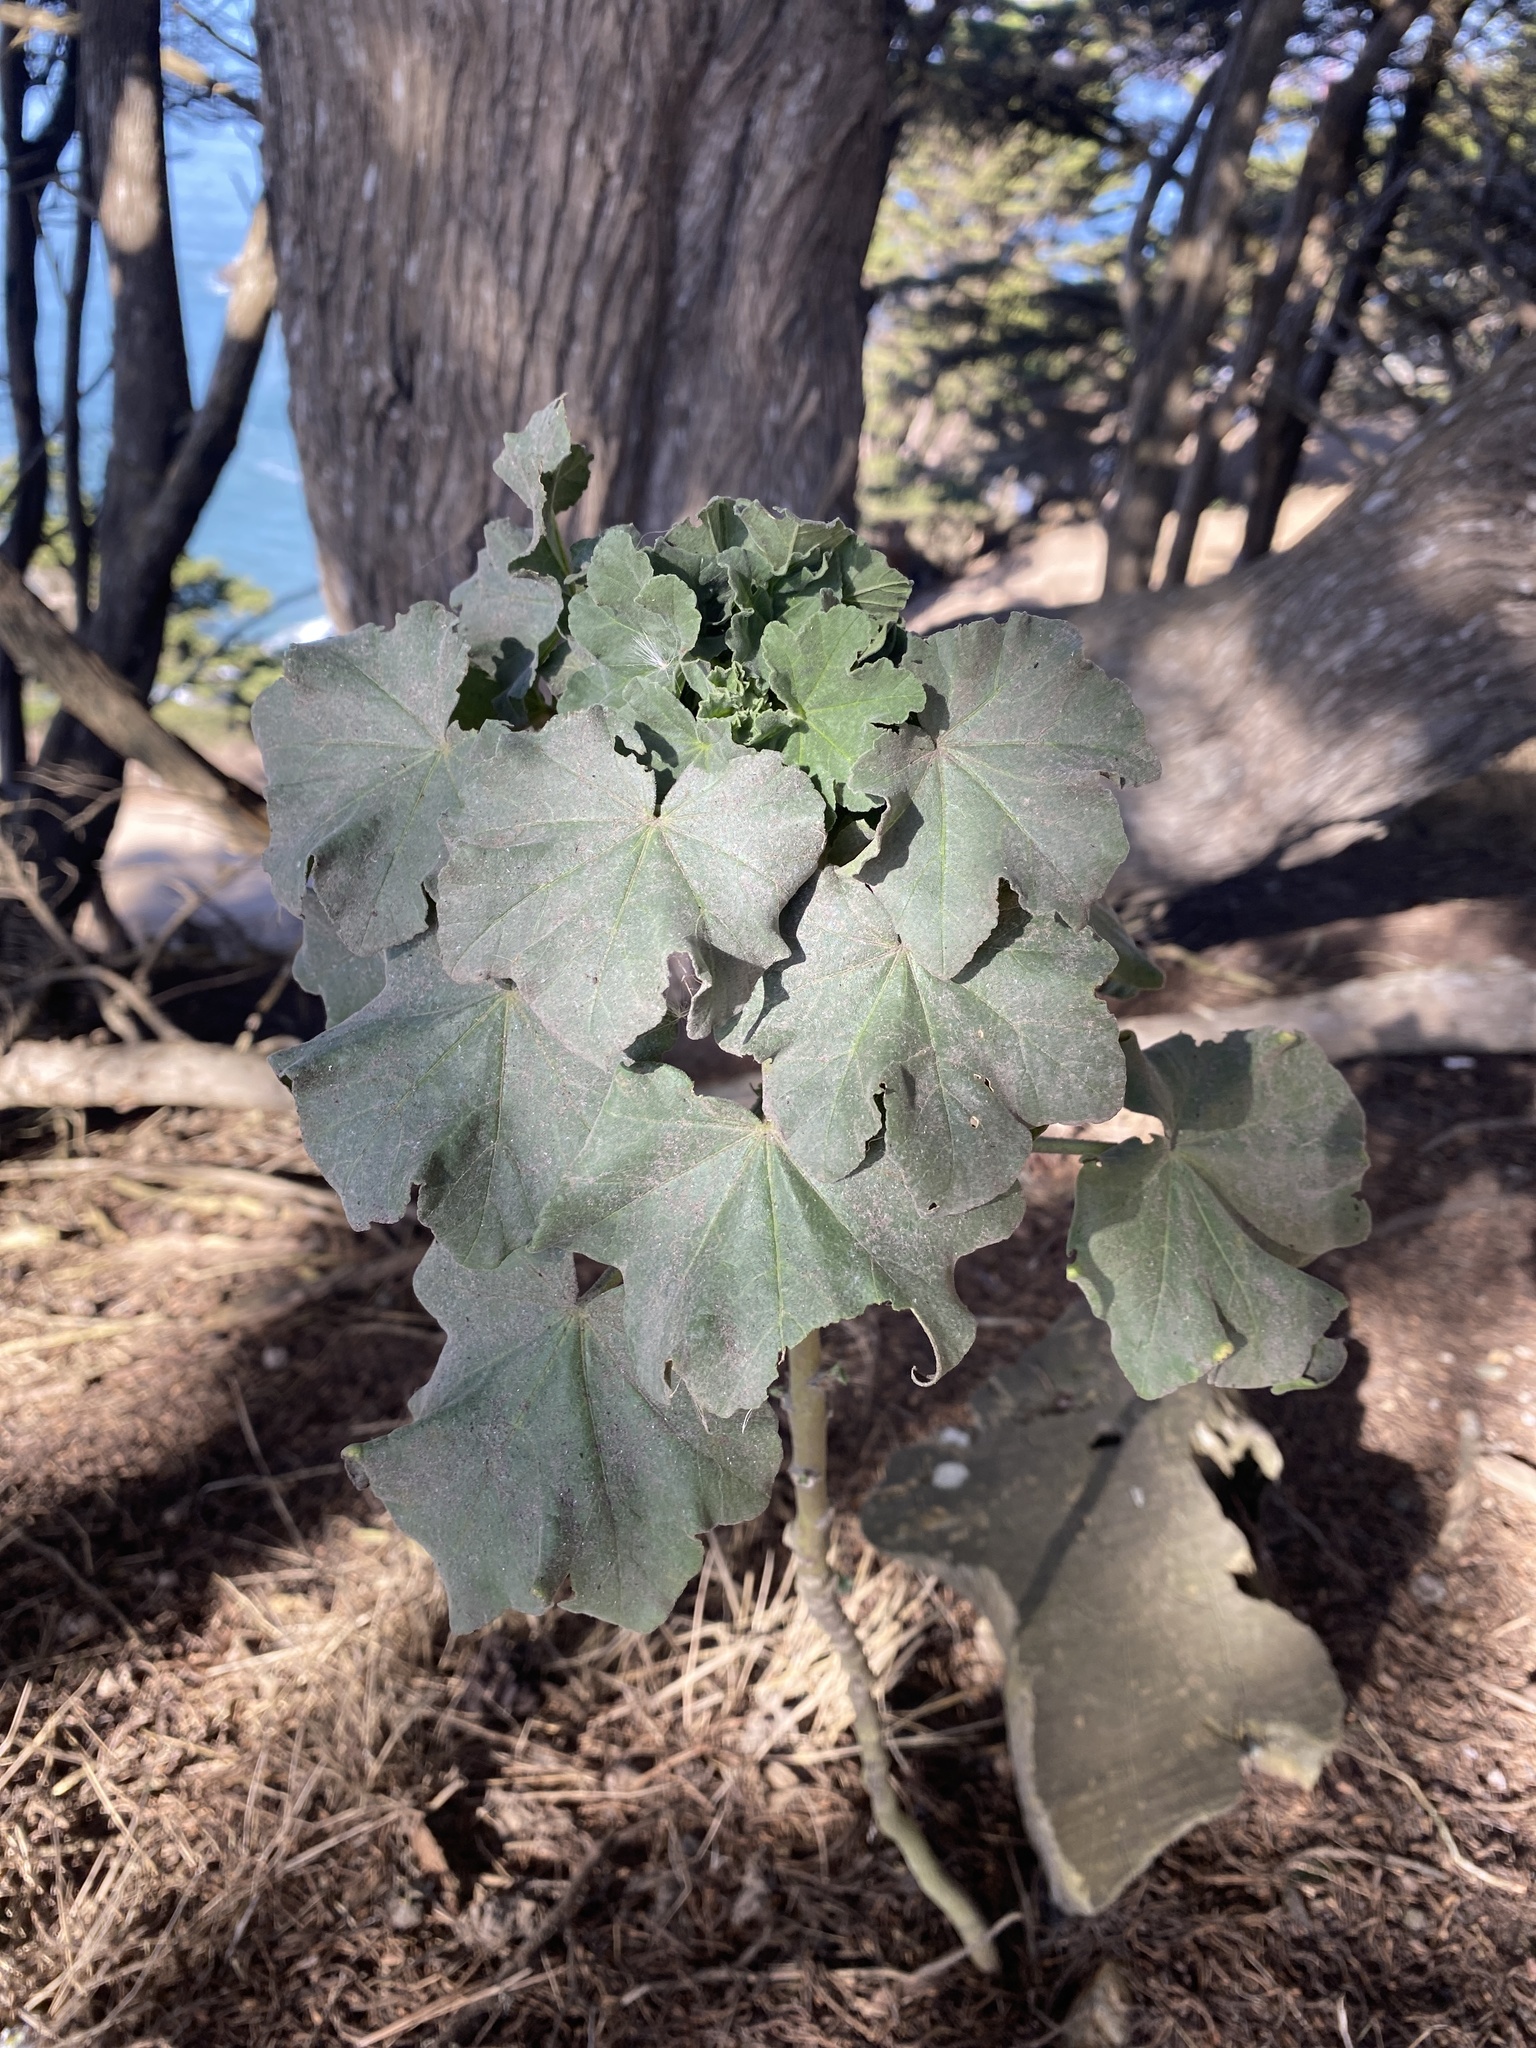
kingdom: Plantae
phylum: Tracheophyta
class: Magnoliopsida
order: Malvales
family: Malvaceae
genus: Malva
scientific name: Malva
